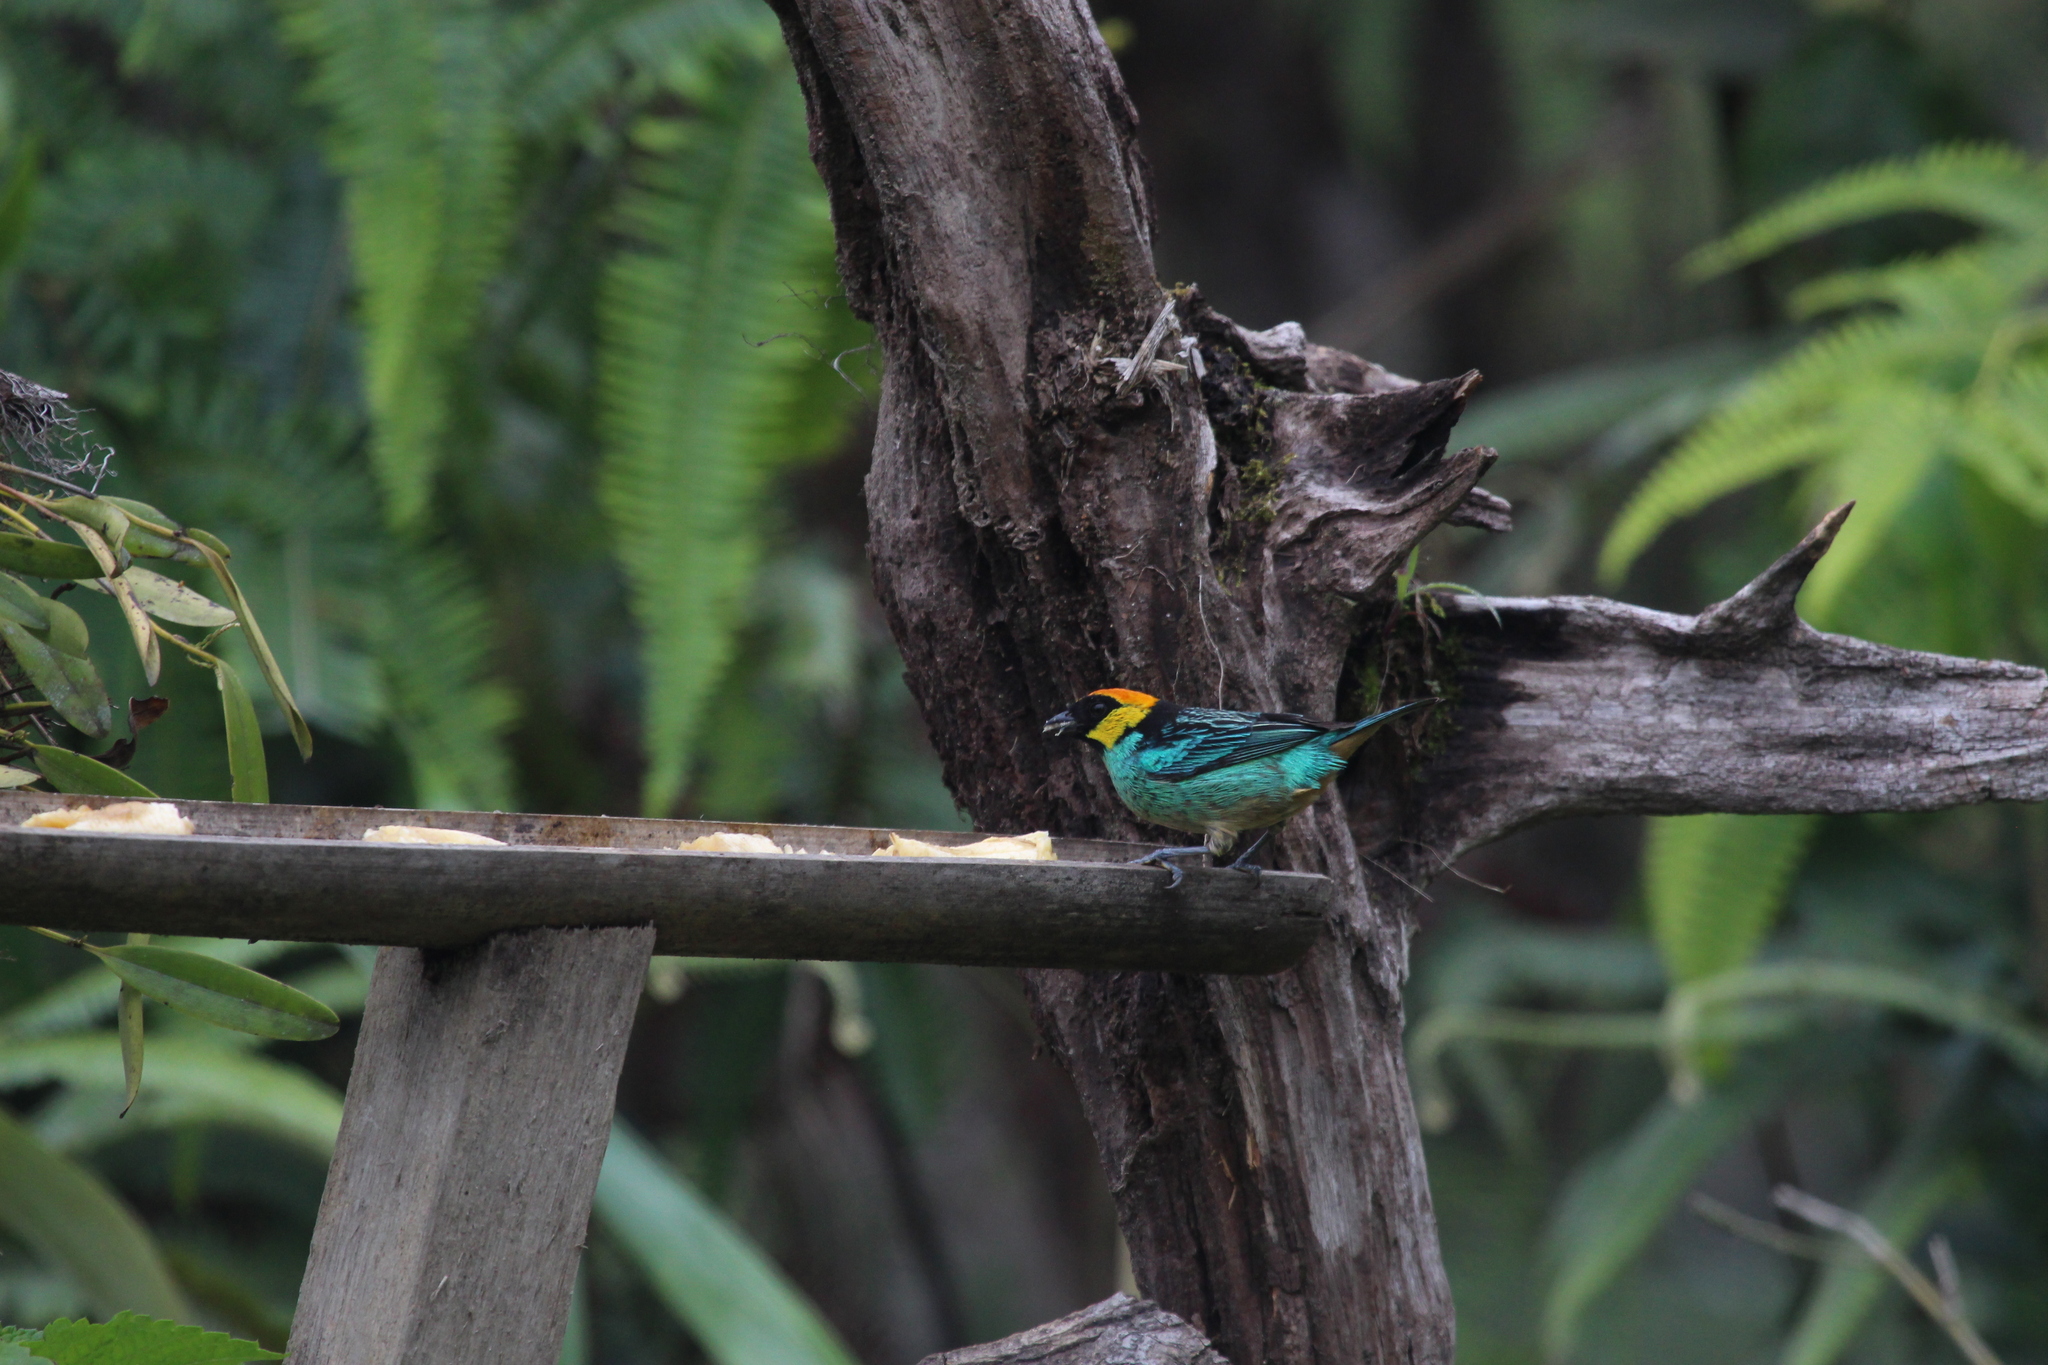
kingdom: Animalia
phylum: Chordata
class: Aves
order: Passeriformes
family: Thraupidae
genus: Tangara
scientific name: Tangara xanthocephala
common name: Saffron-crowned tanager
